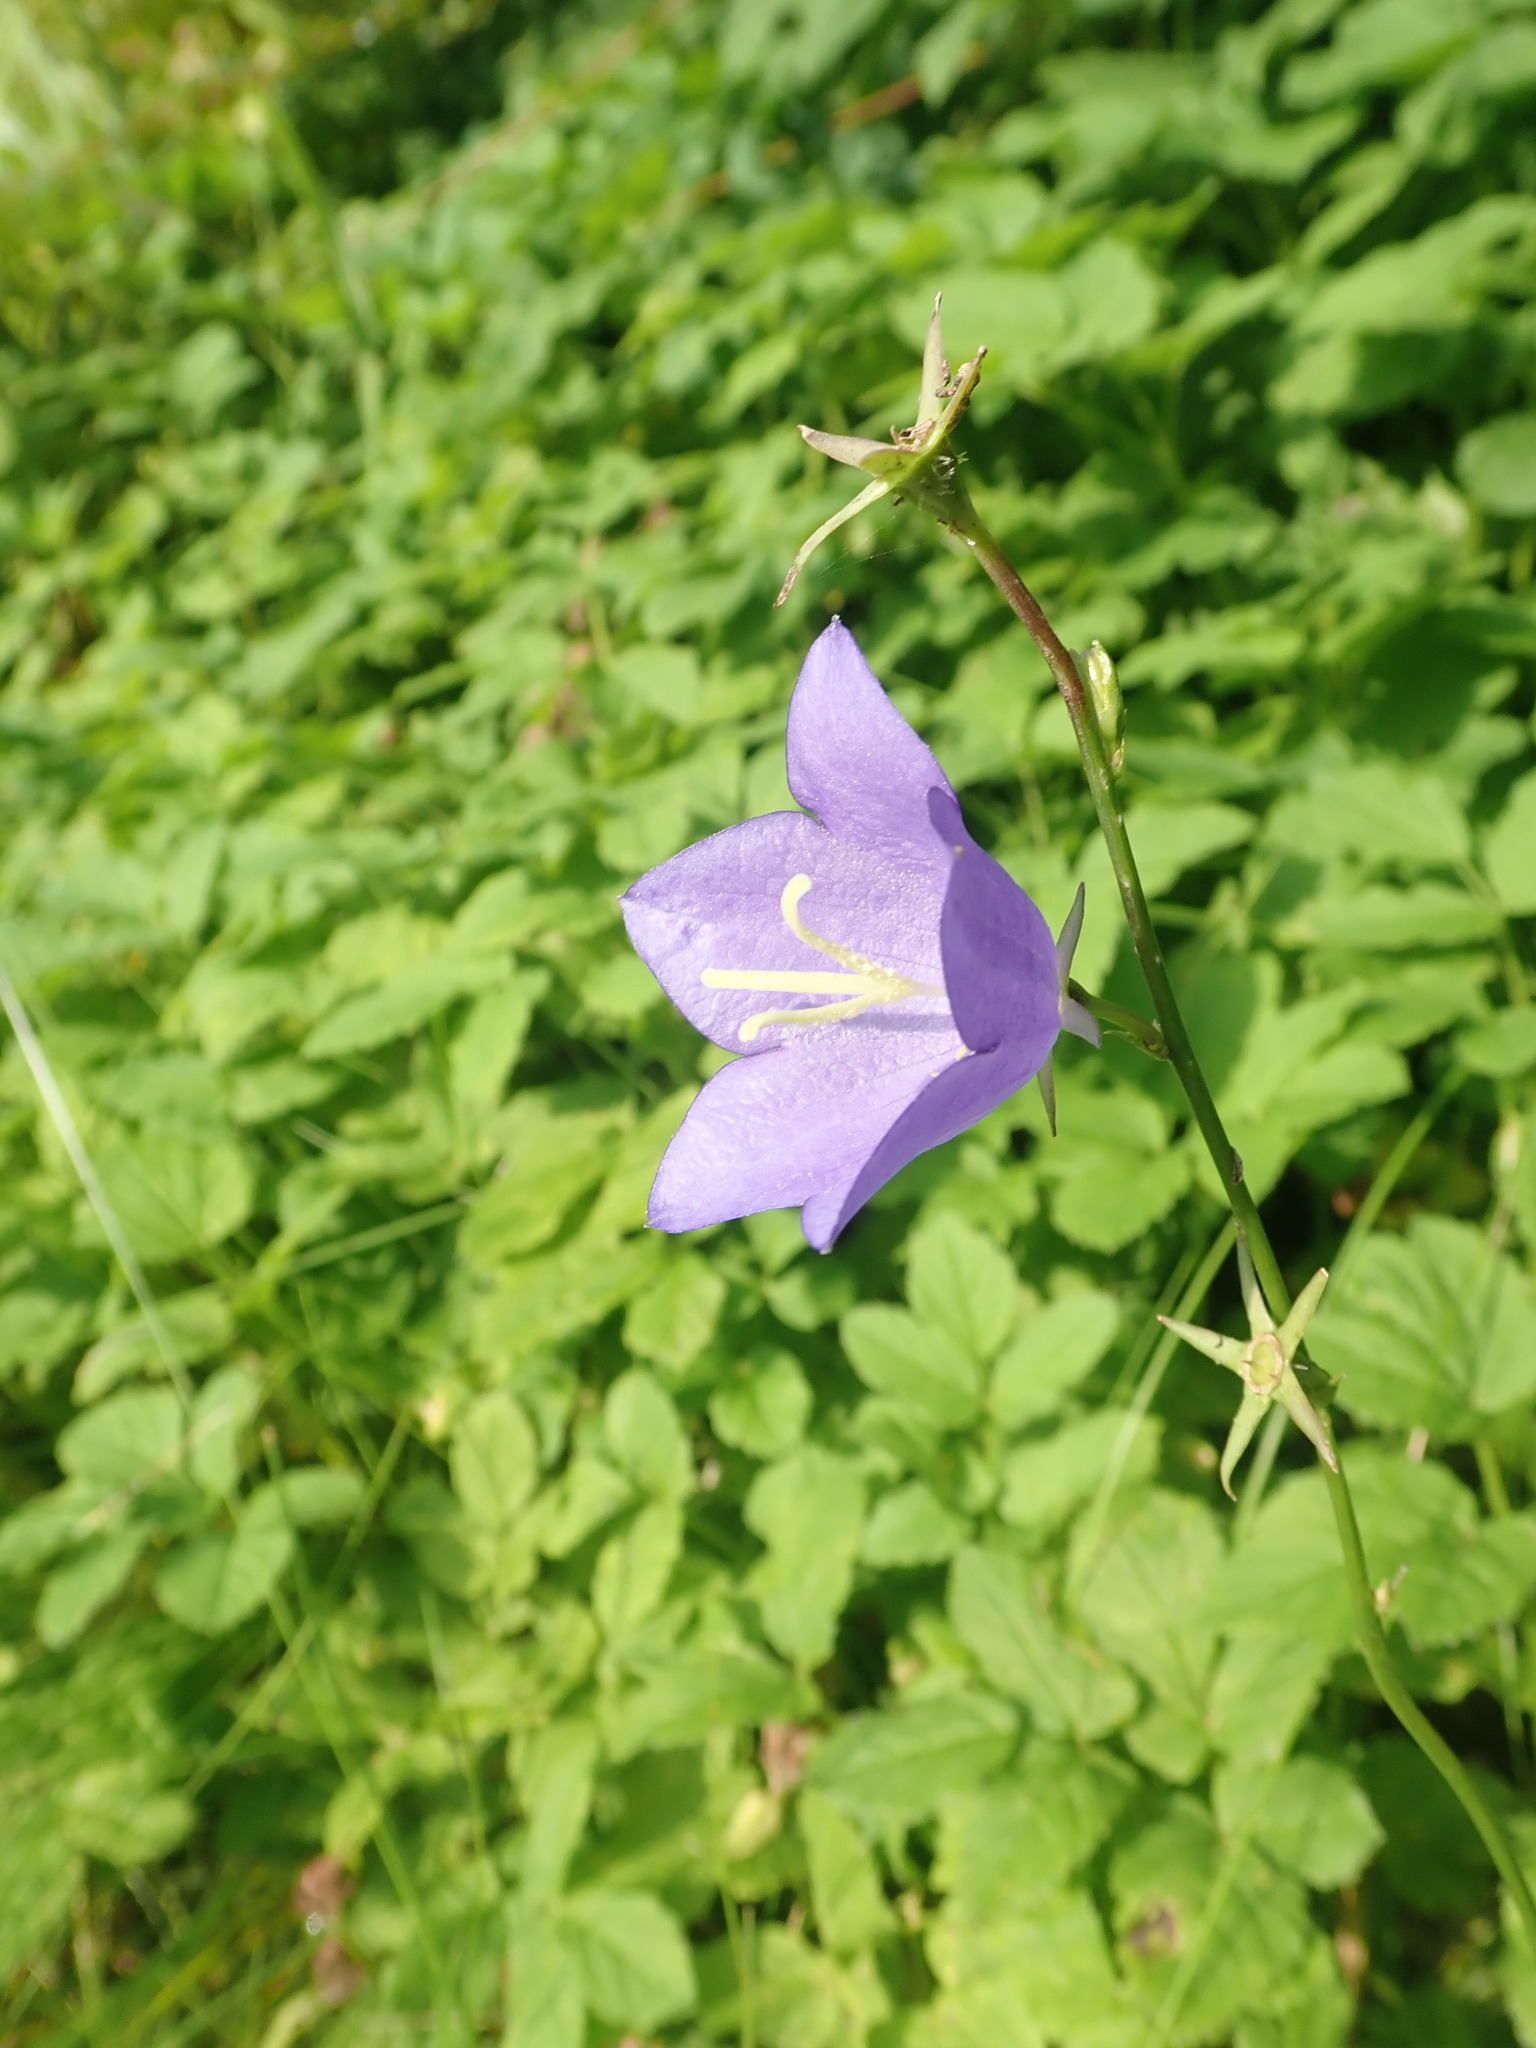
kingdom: Plantae
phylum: Tracheophyta
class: Magnoliopsida
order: Asterales
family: Campanulaceae
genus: Campanula
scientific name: Campanula persicifolia
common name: Peach-leaved bellflower
